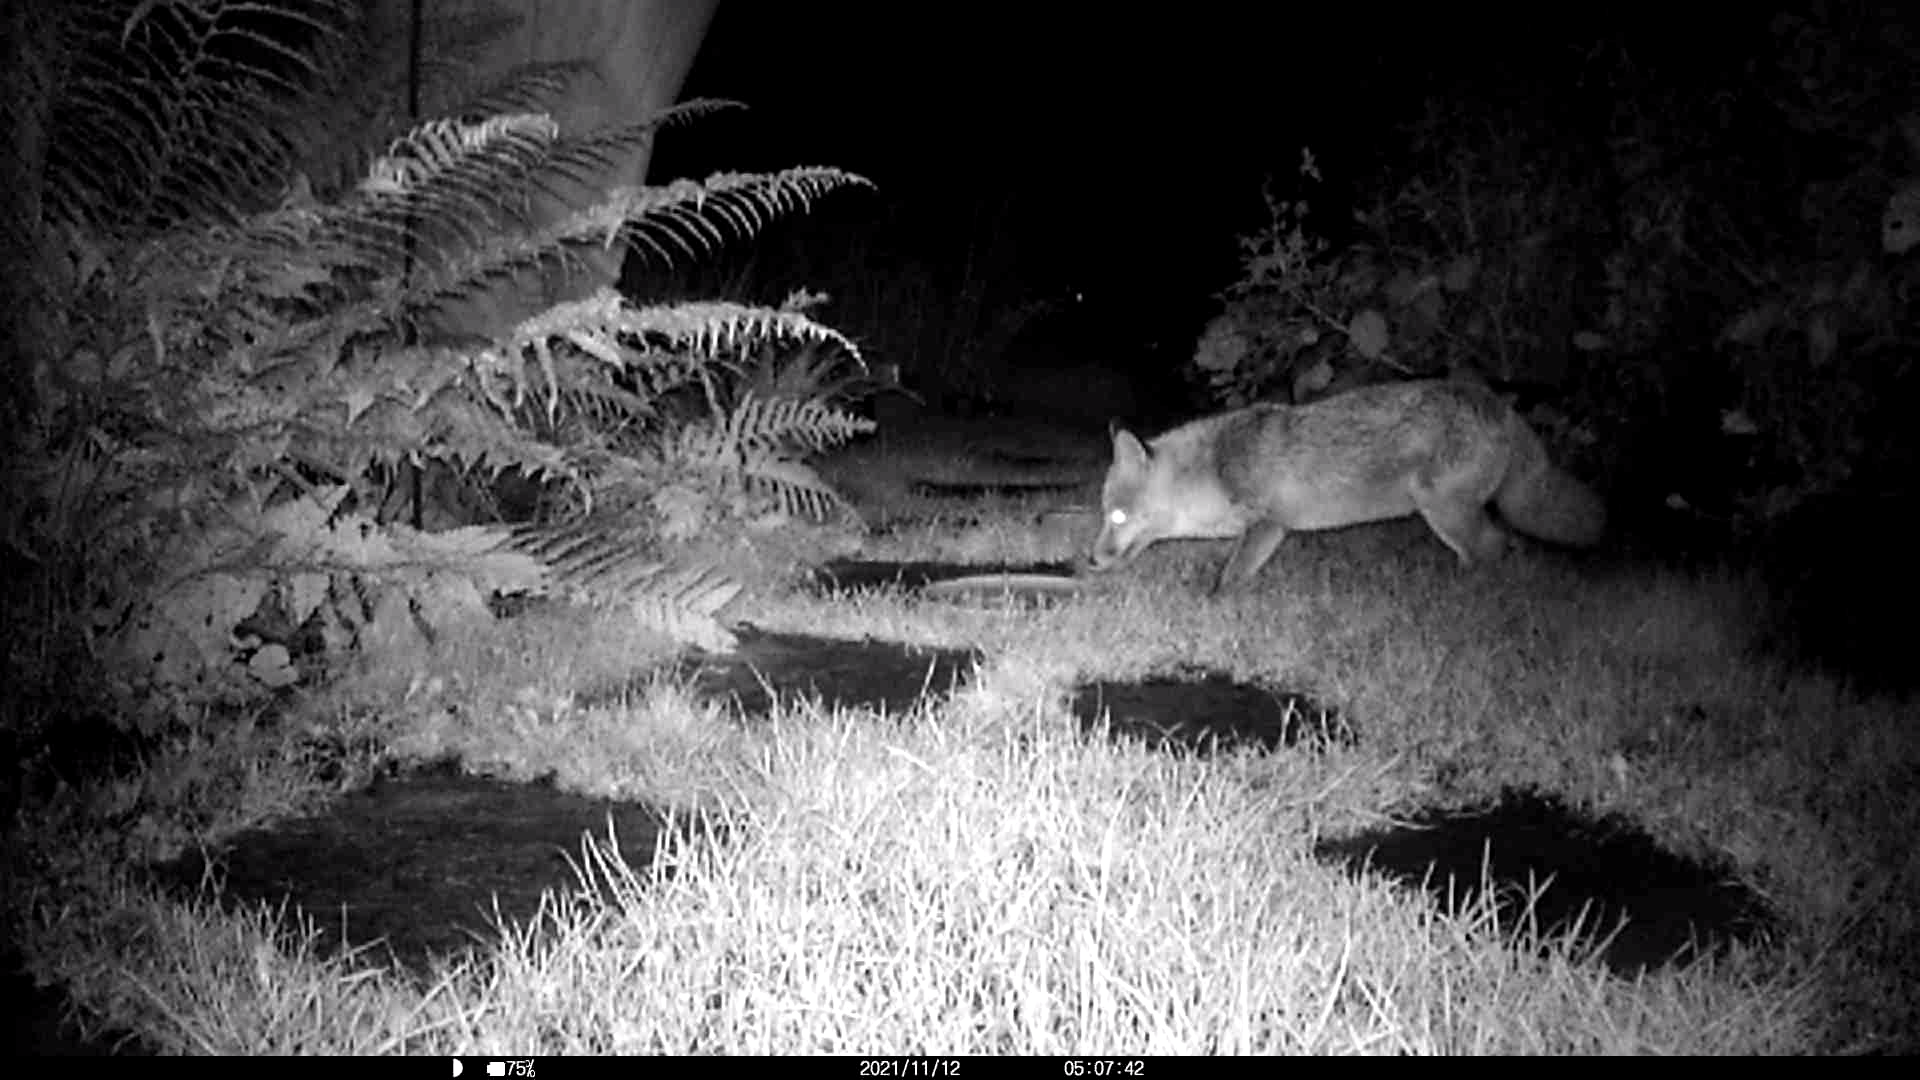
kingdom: Animalia
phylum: Chordata
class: Mammalia
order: Carnivora
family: Canidae
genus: Vulpes
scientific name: Vulpes vulpes
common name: Red fox
